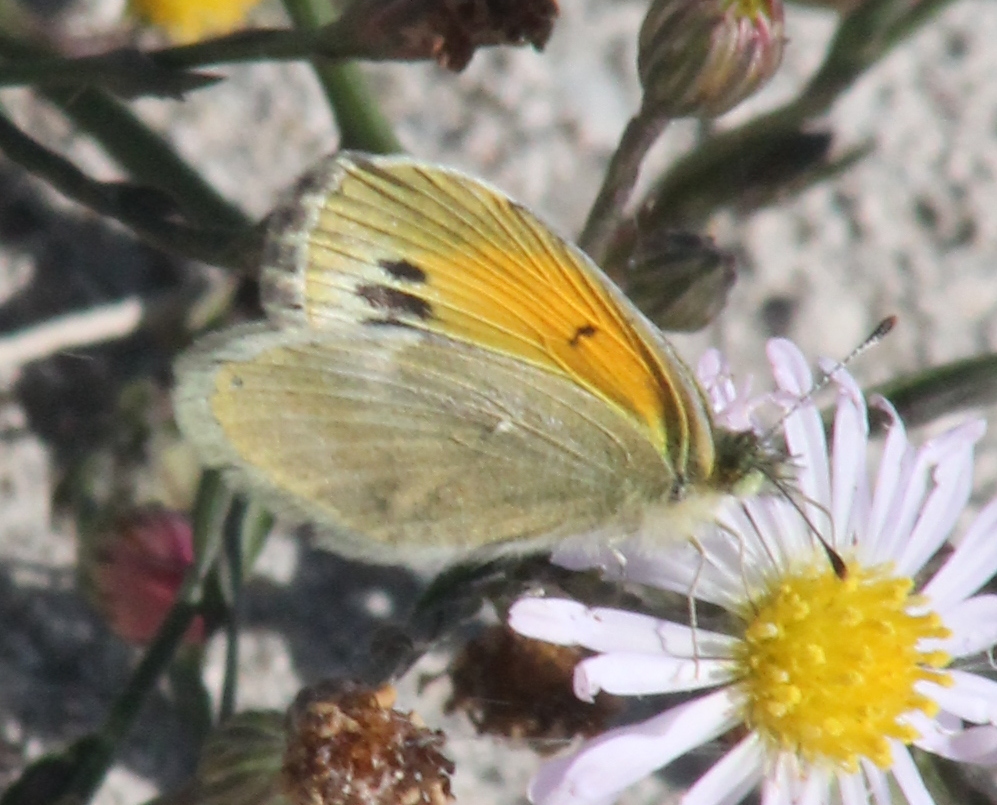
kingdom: Animalia
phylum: Arthropoda
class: Insecta
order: Lepidoptera
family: Pieridae
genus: Nathalis
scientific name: Nathalis iole
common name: Dainty sulphur
